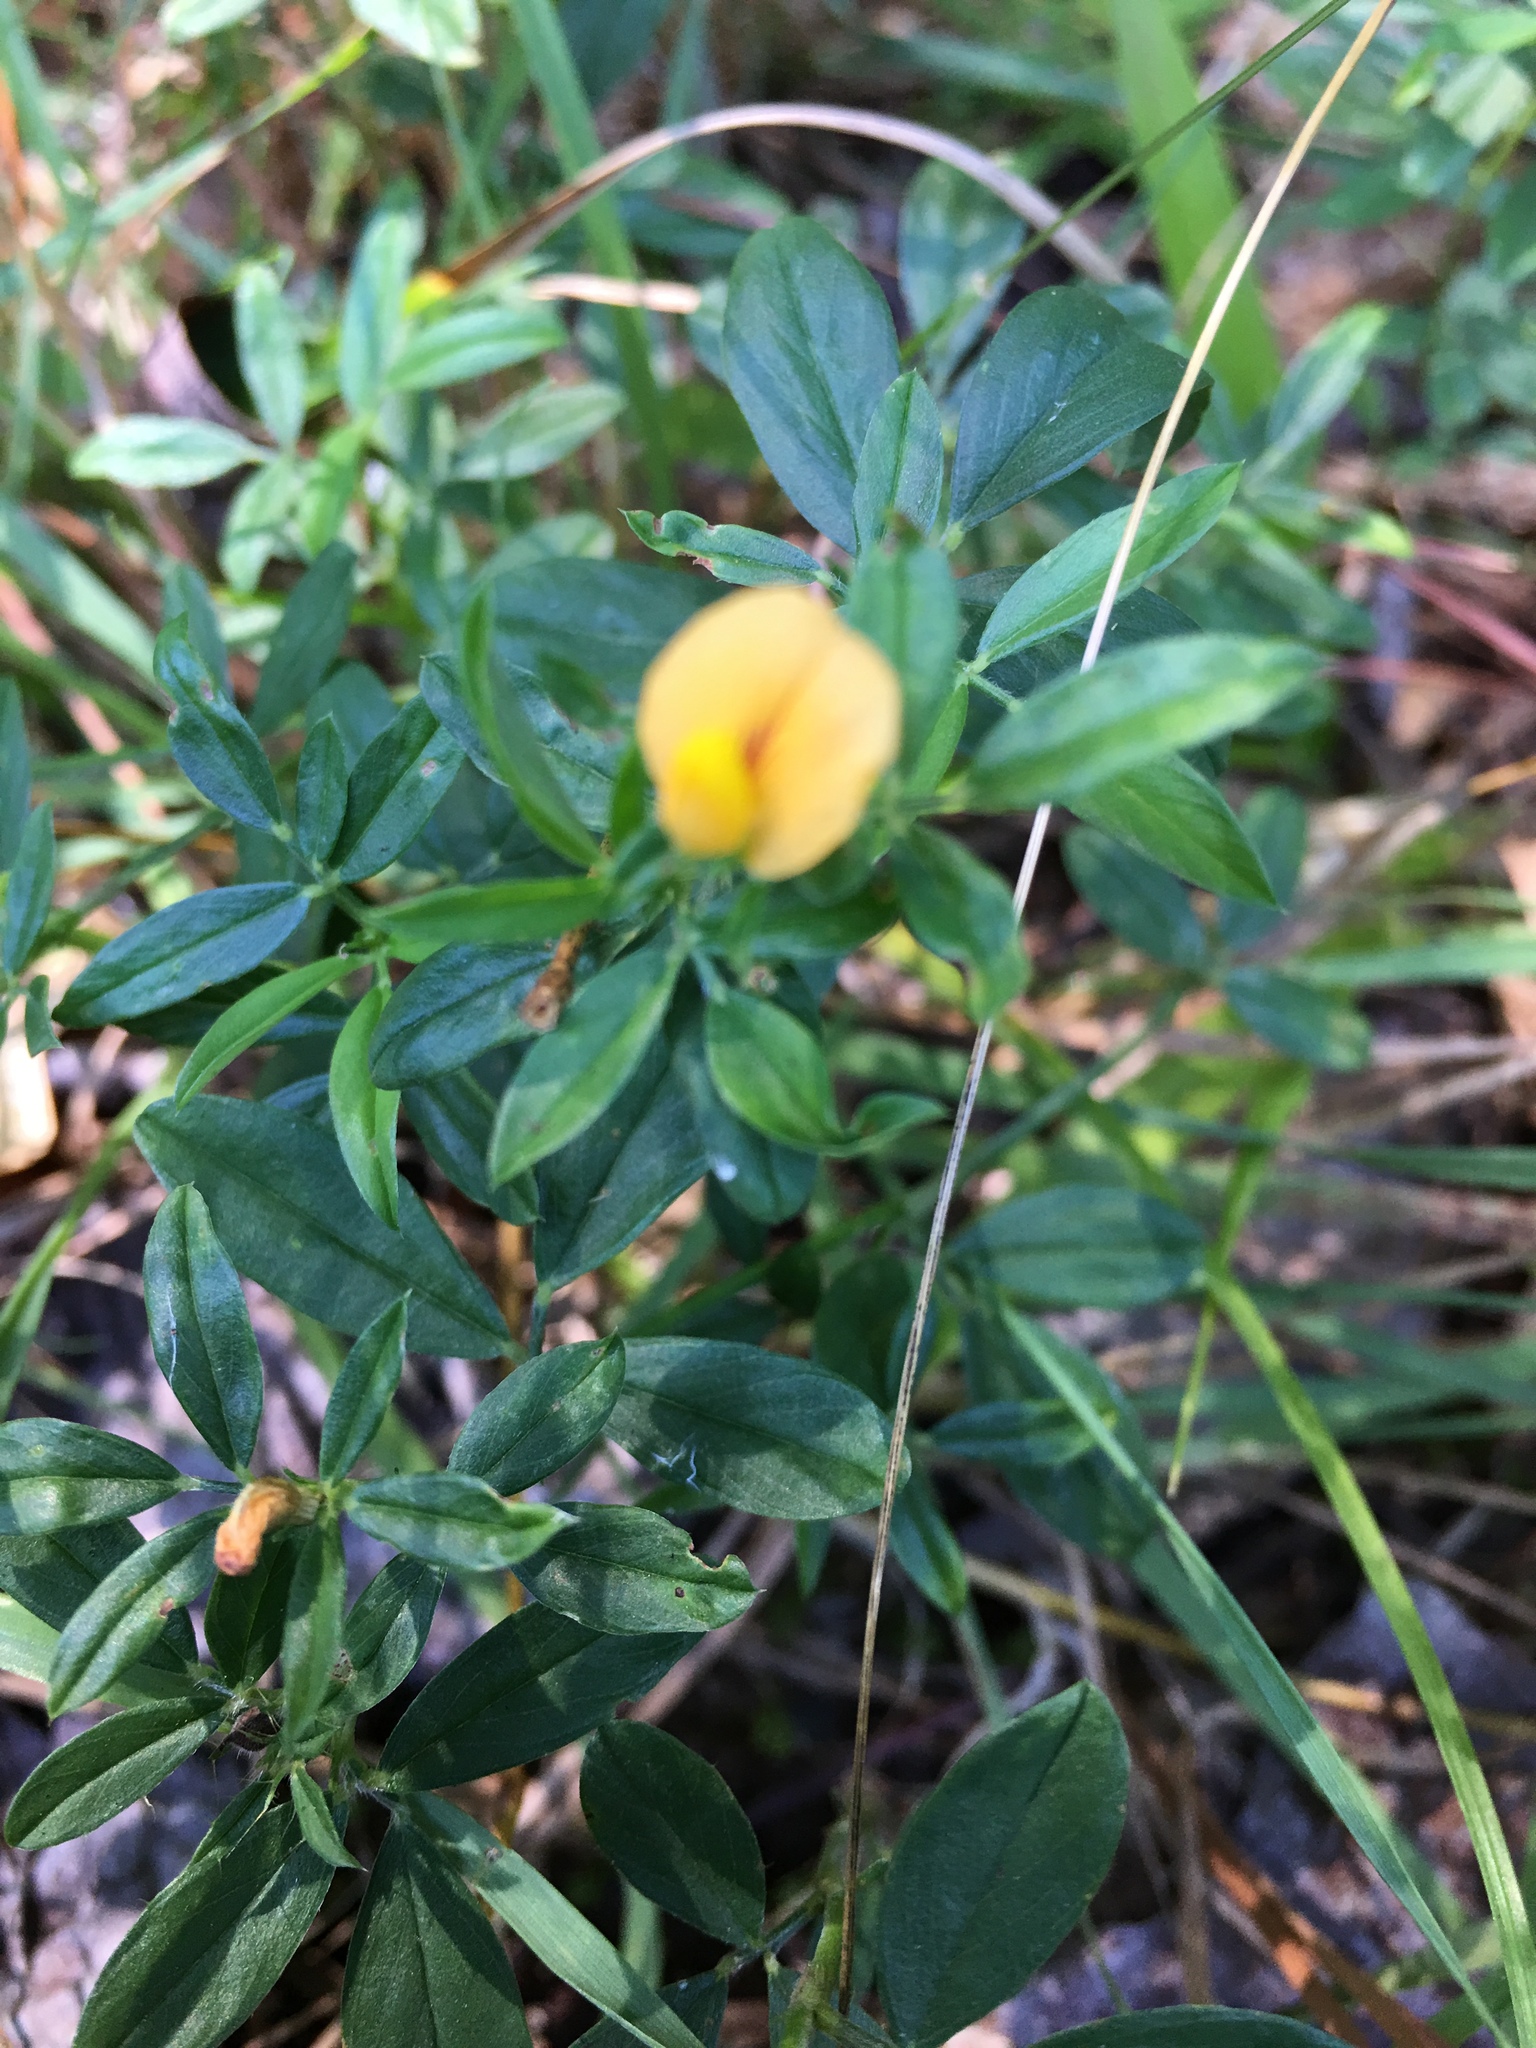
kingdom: Plantae
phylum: Tracheophyta
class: Magnoliopsida
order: Fabales
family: Fabaceae
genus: Stylosanthes
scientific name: Stylosanthes biflora
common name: Two-flower pencil-flower
